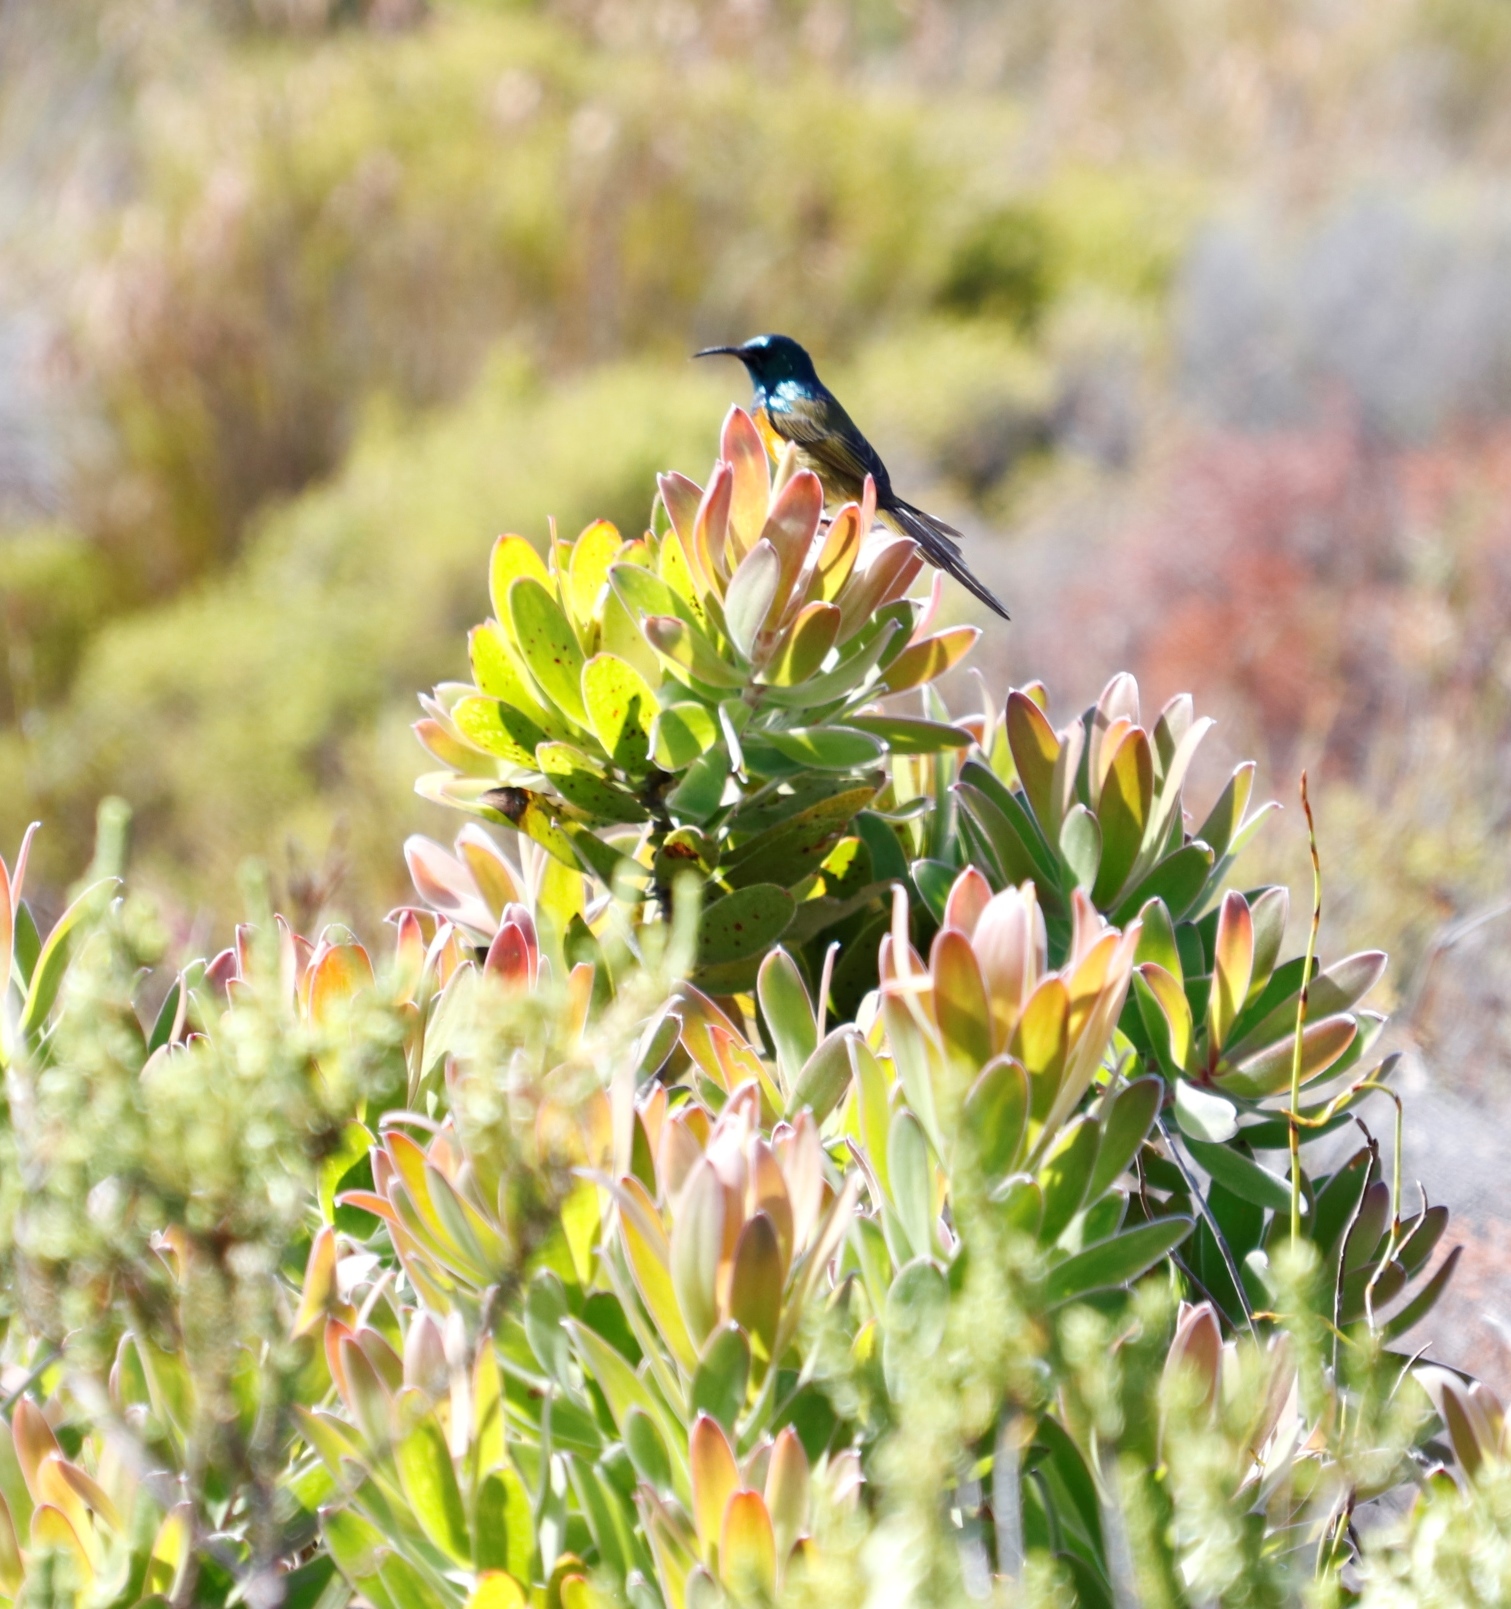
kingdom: Plantae
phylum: Tracheophyta
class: Magnoliopsida
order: Proteales
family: Proteaceae
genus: Leucadendron
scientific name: Leucadendron laureolum
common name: Golden sunshinebush
